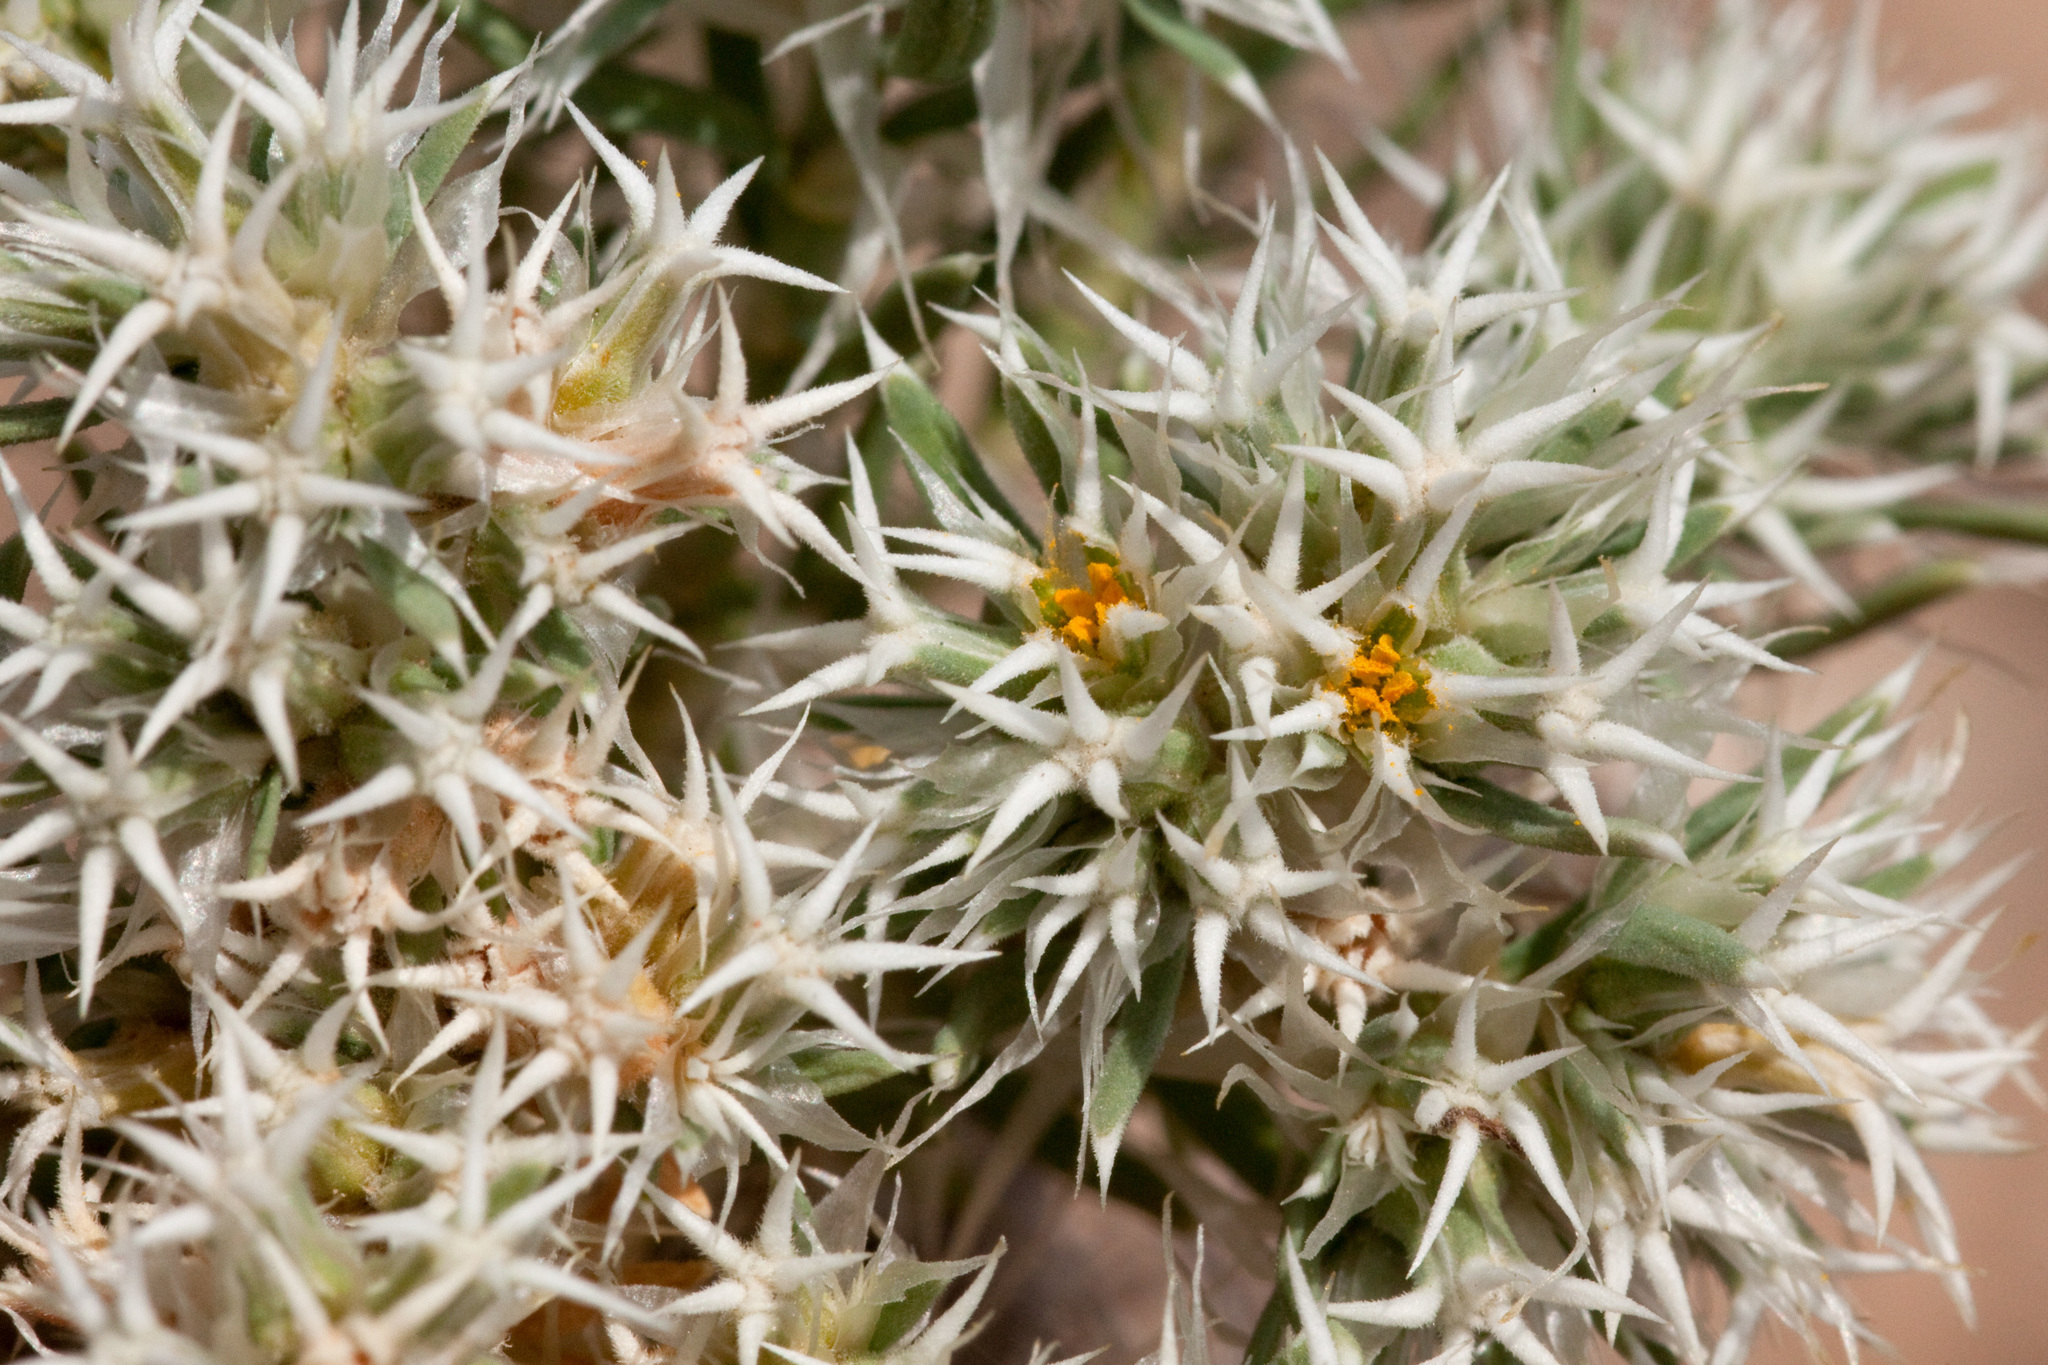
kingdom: Plantae
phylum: Tracheophyta
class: Magnoliopsida
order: Caryophyllales
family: Caryophyllaceae
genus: Paronychia
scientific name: Paronychia wilkinsonii
